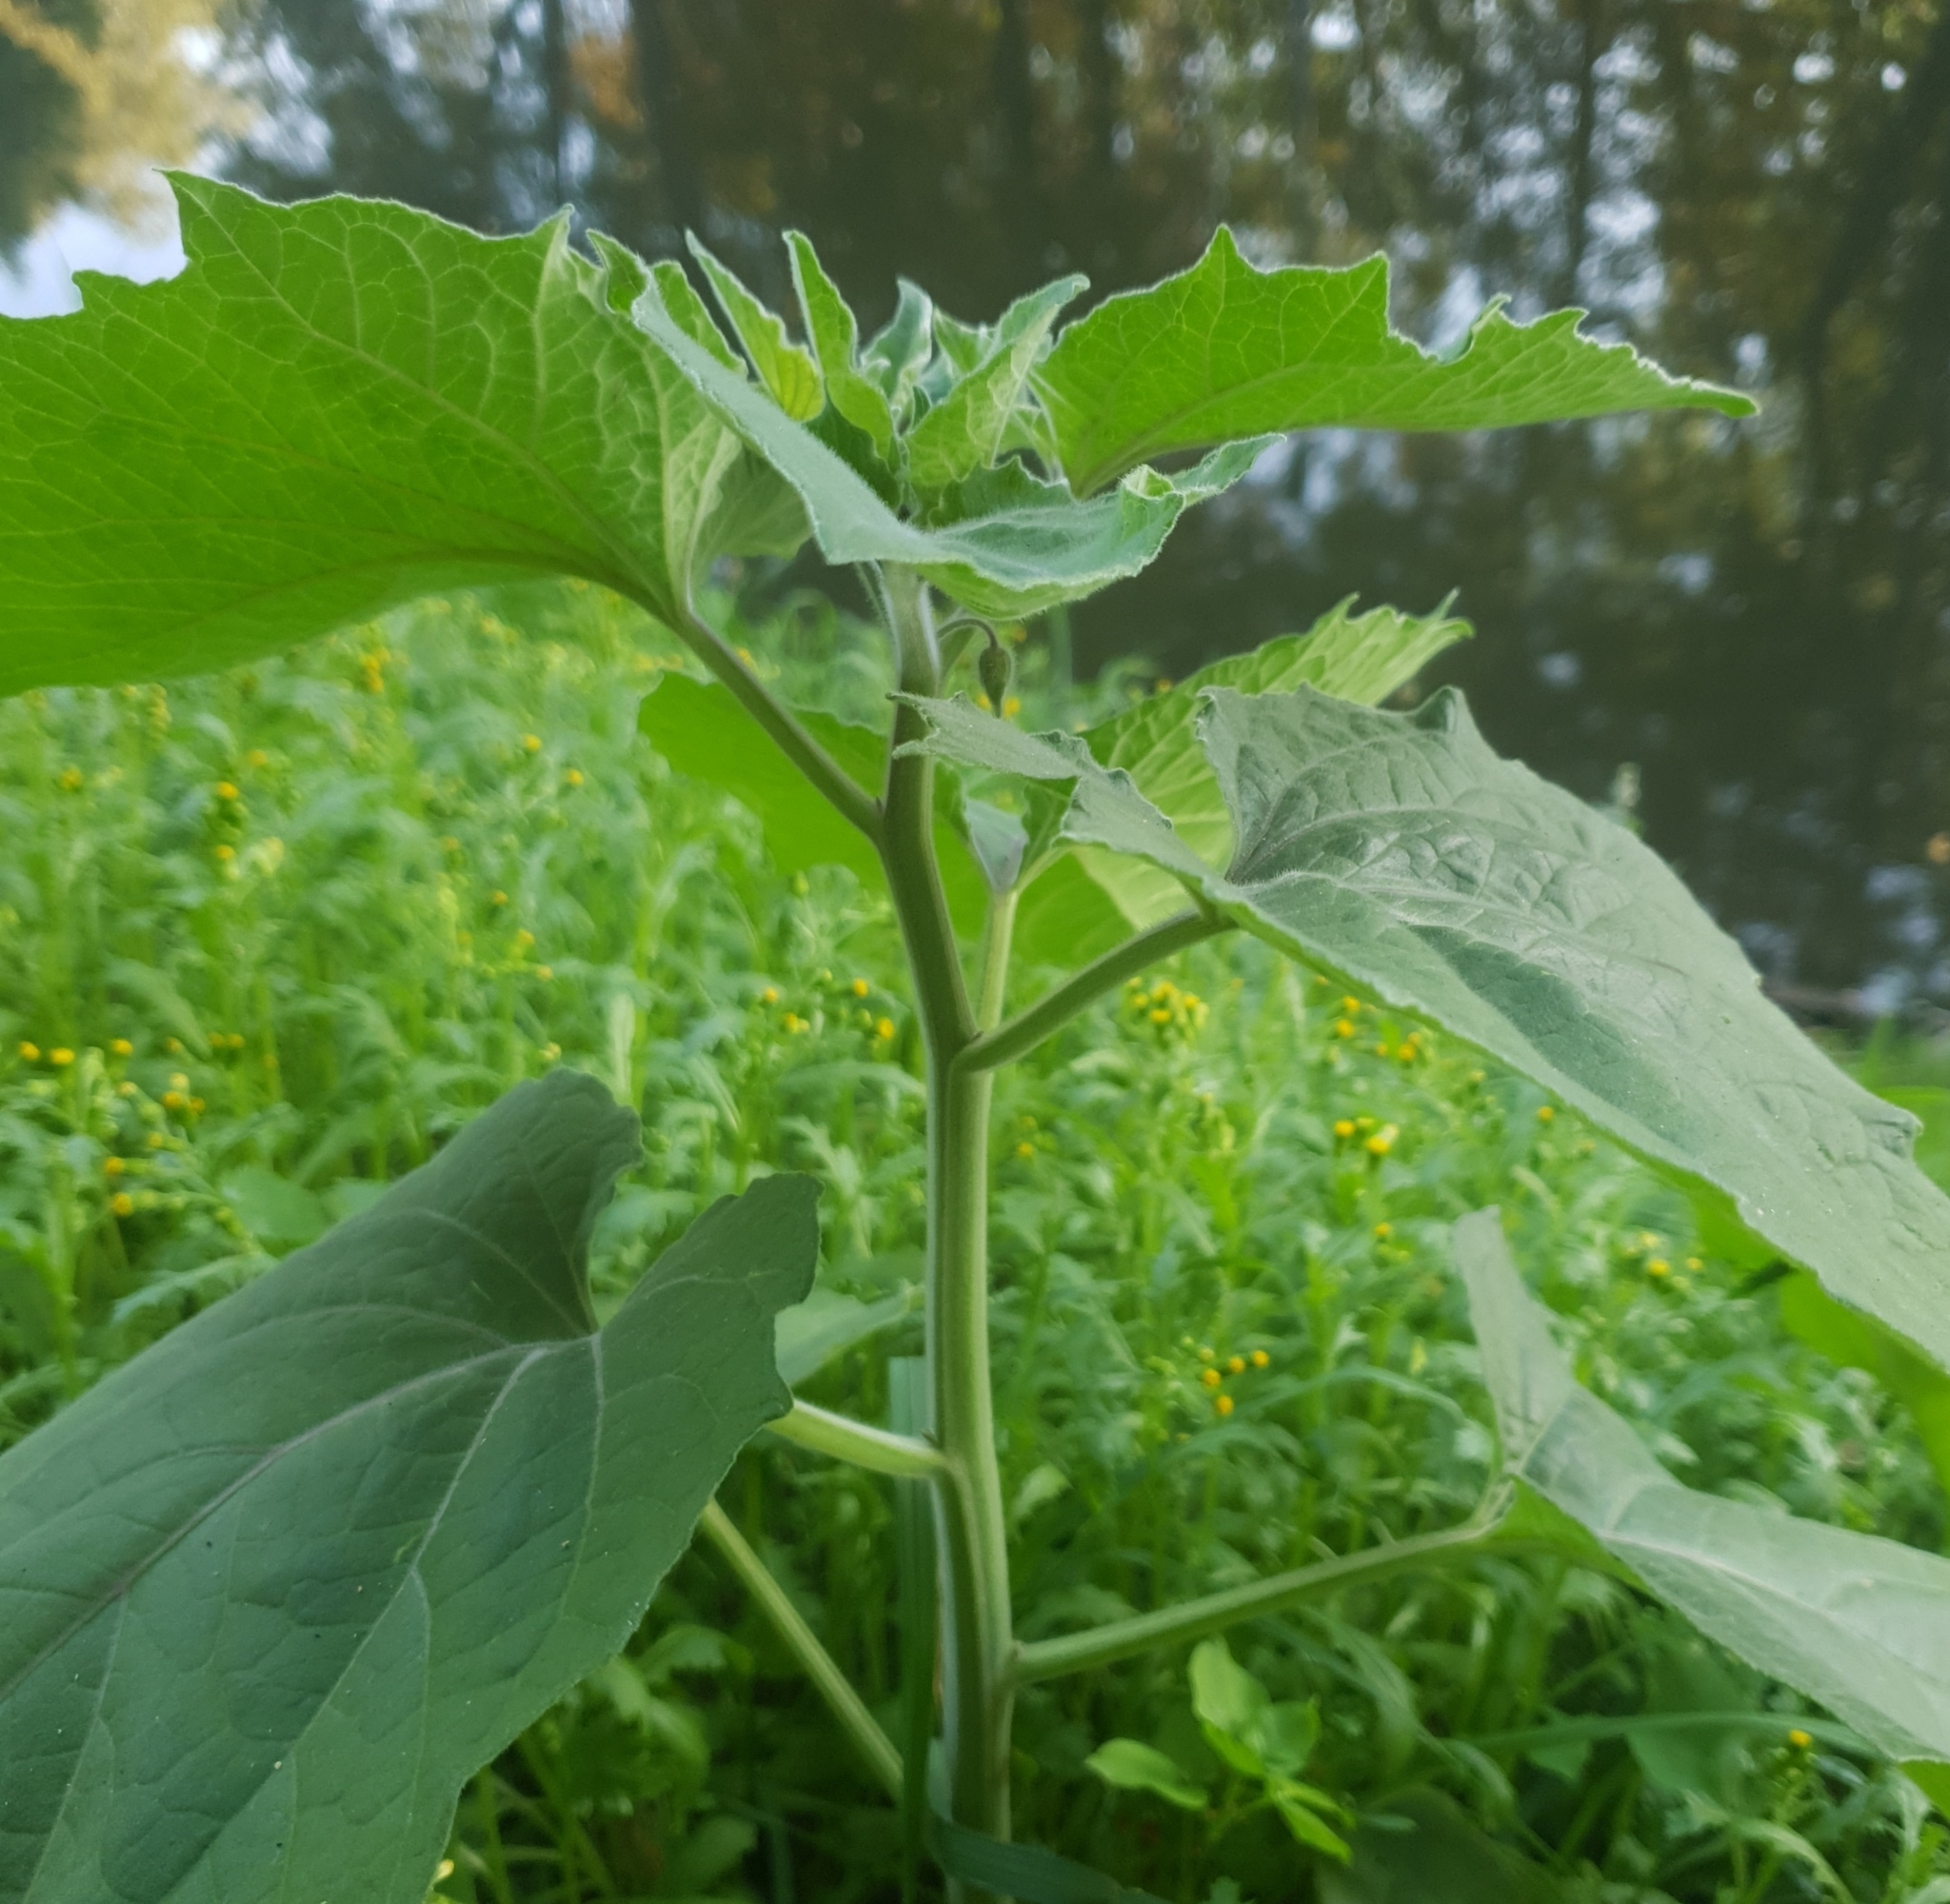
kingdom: Plantae
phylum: Tracheophyta
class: Magnoliopsida
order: Solanales
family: Solanaceae
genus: Physalis
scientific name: Physalis peruviana
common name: Cape-gooseberry
